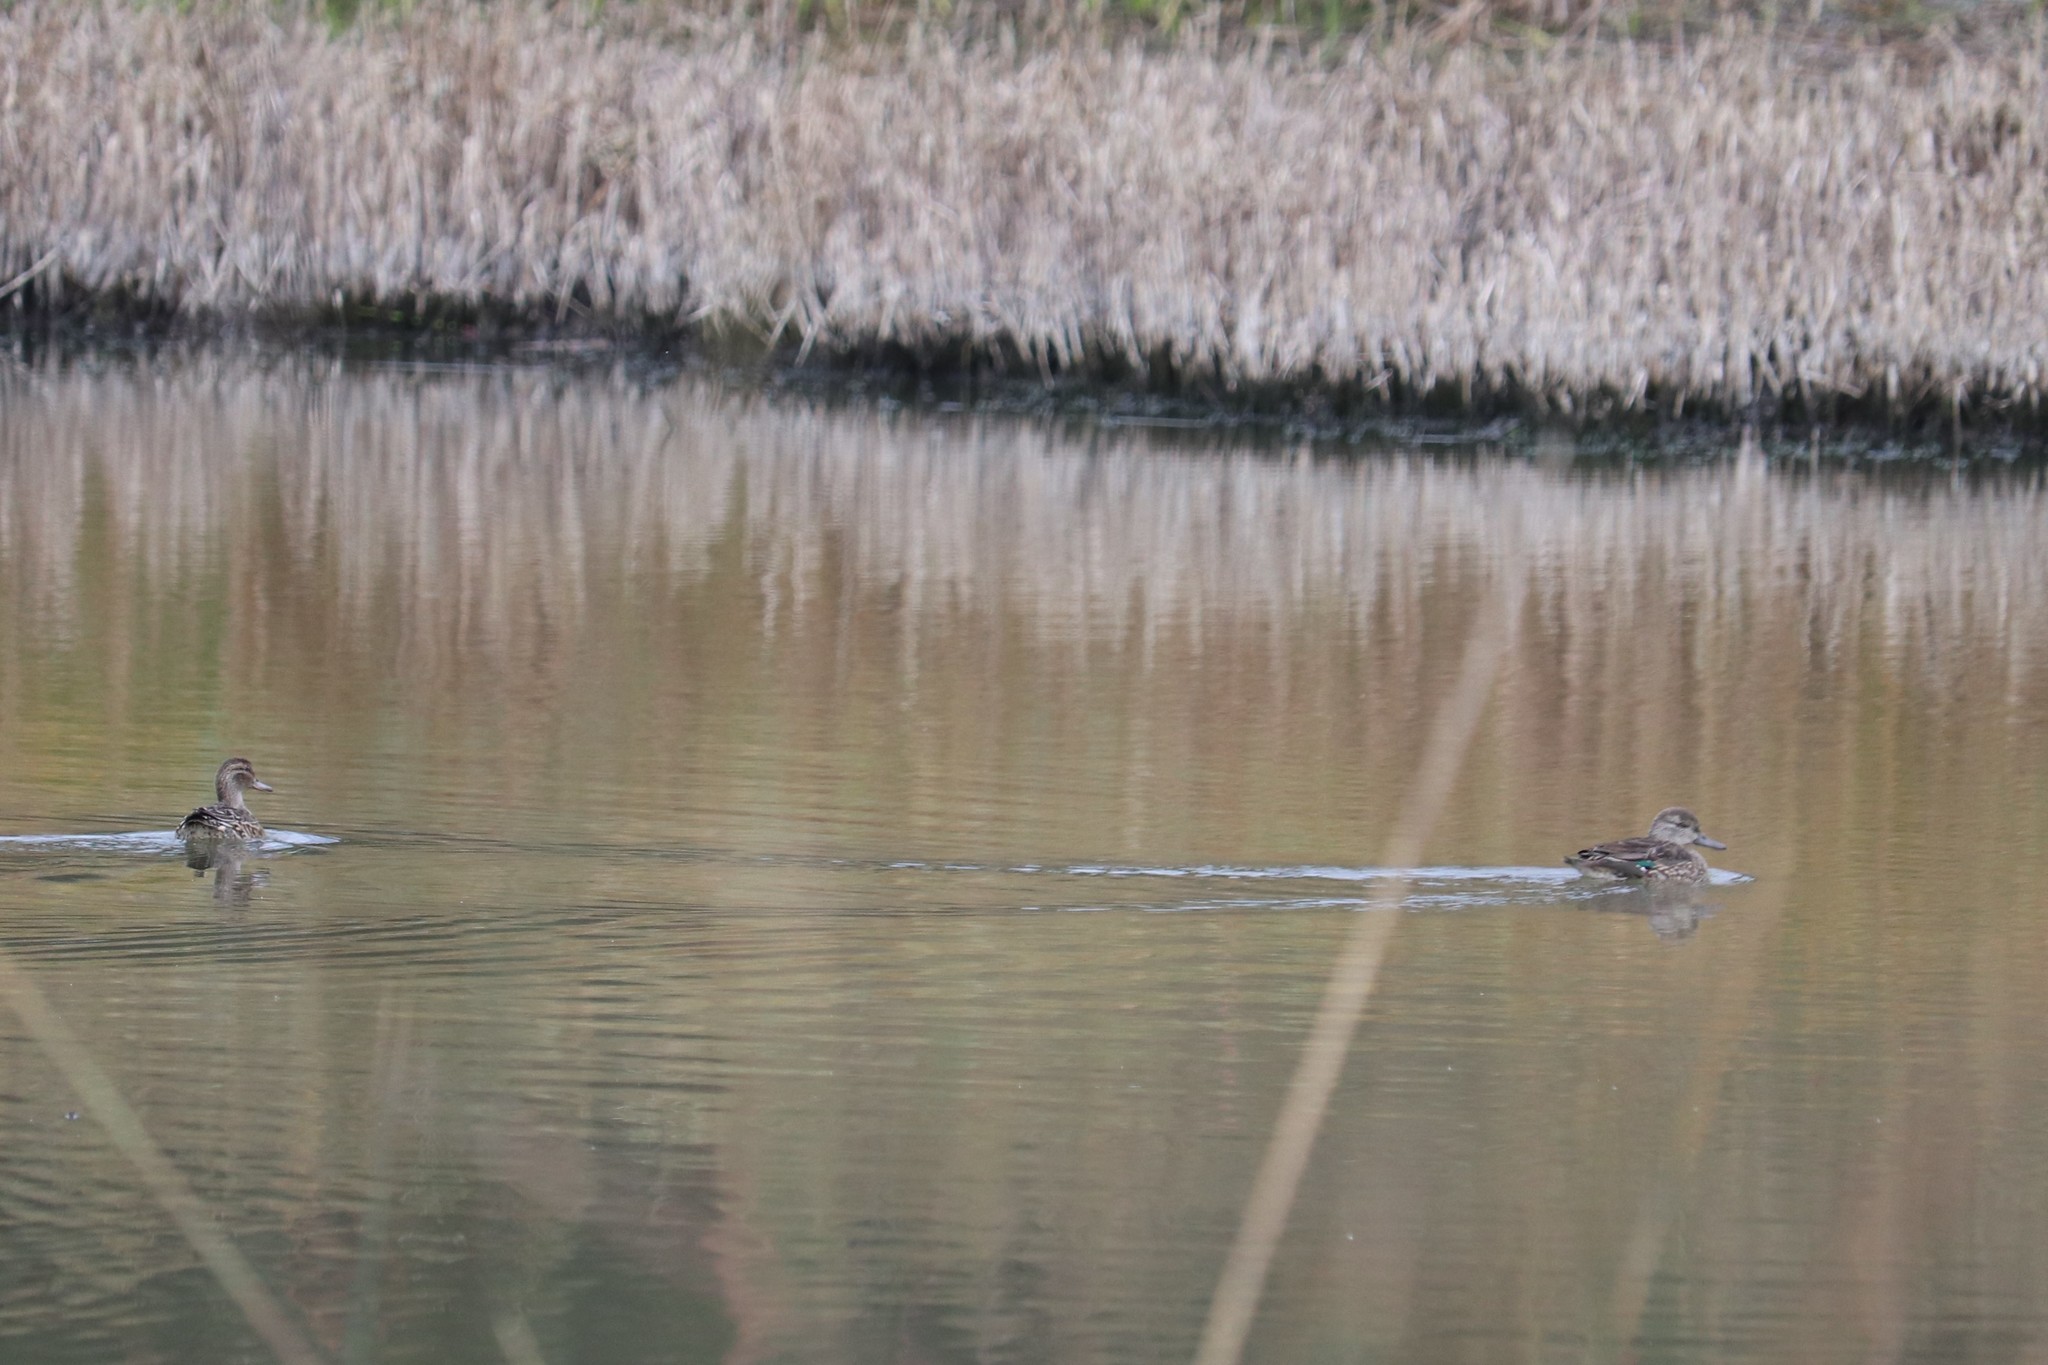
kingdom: Animalia
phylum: Chordata
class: Aves
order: Anseriformes
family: Anatidae
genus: Anas
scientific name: Anas crecca
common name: Eurasian teal
